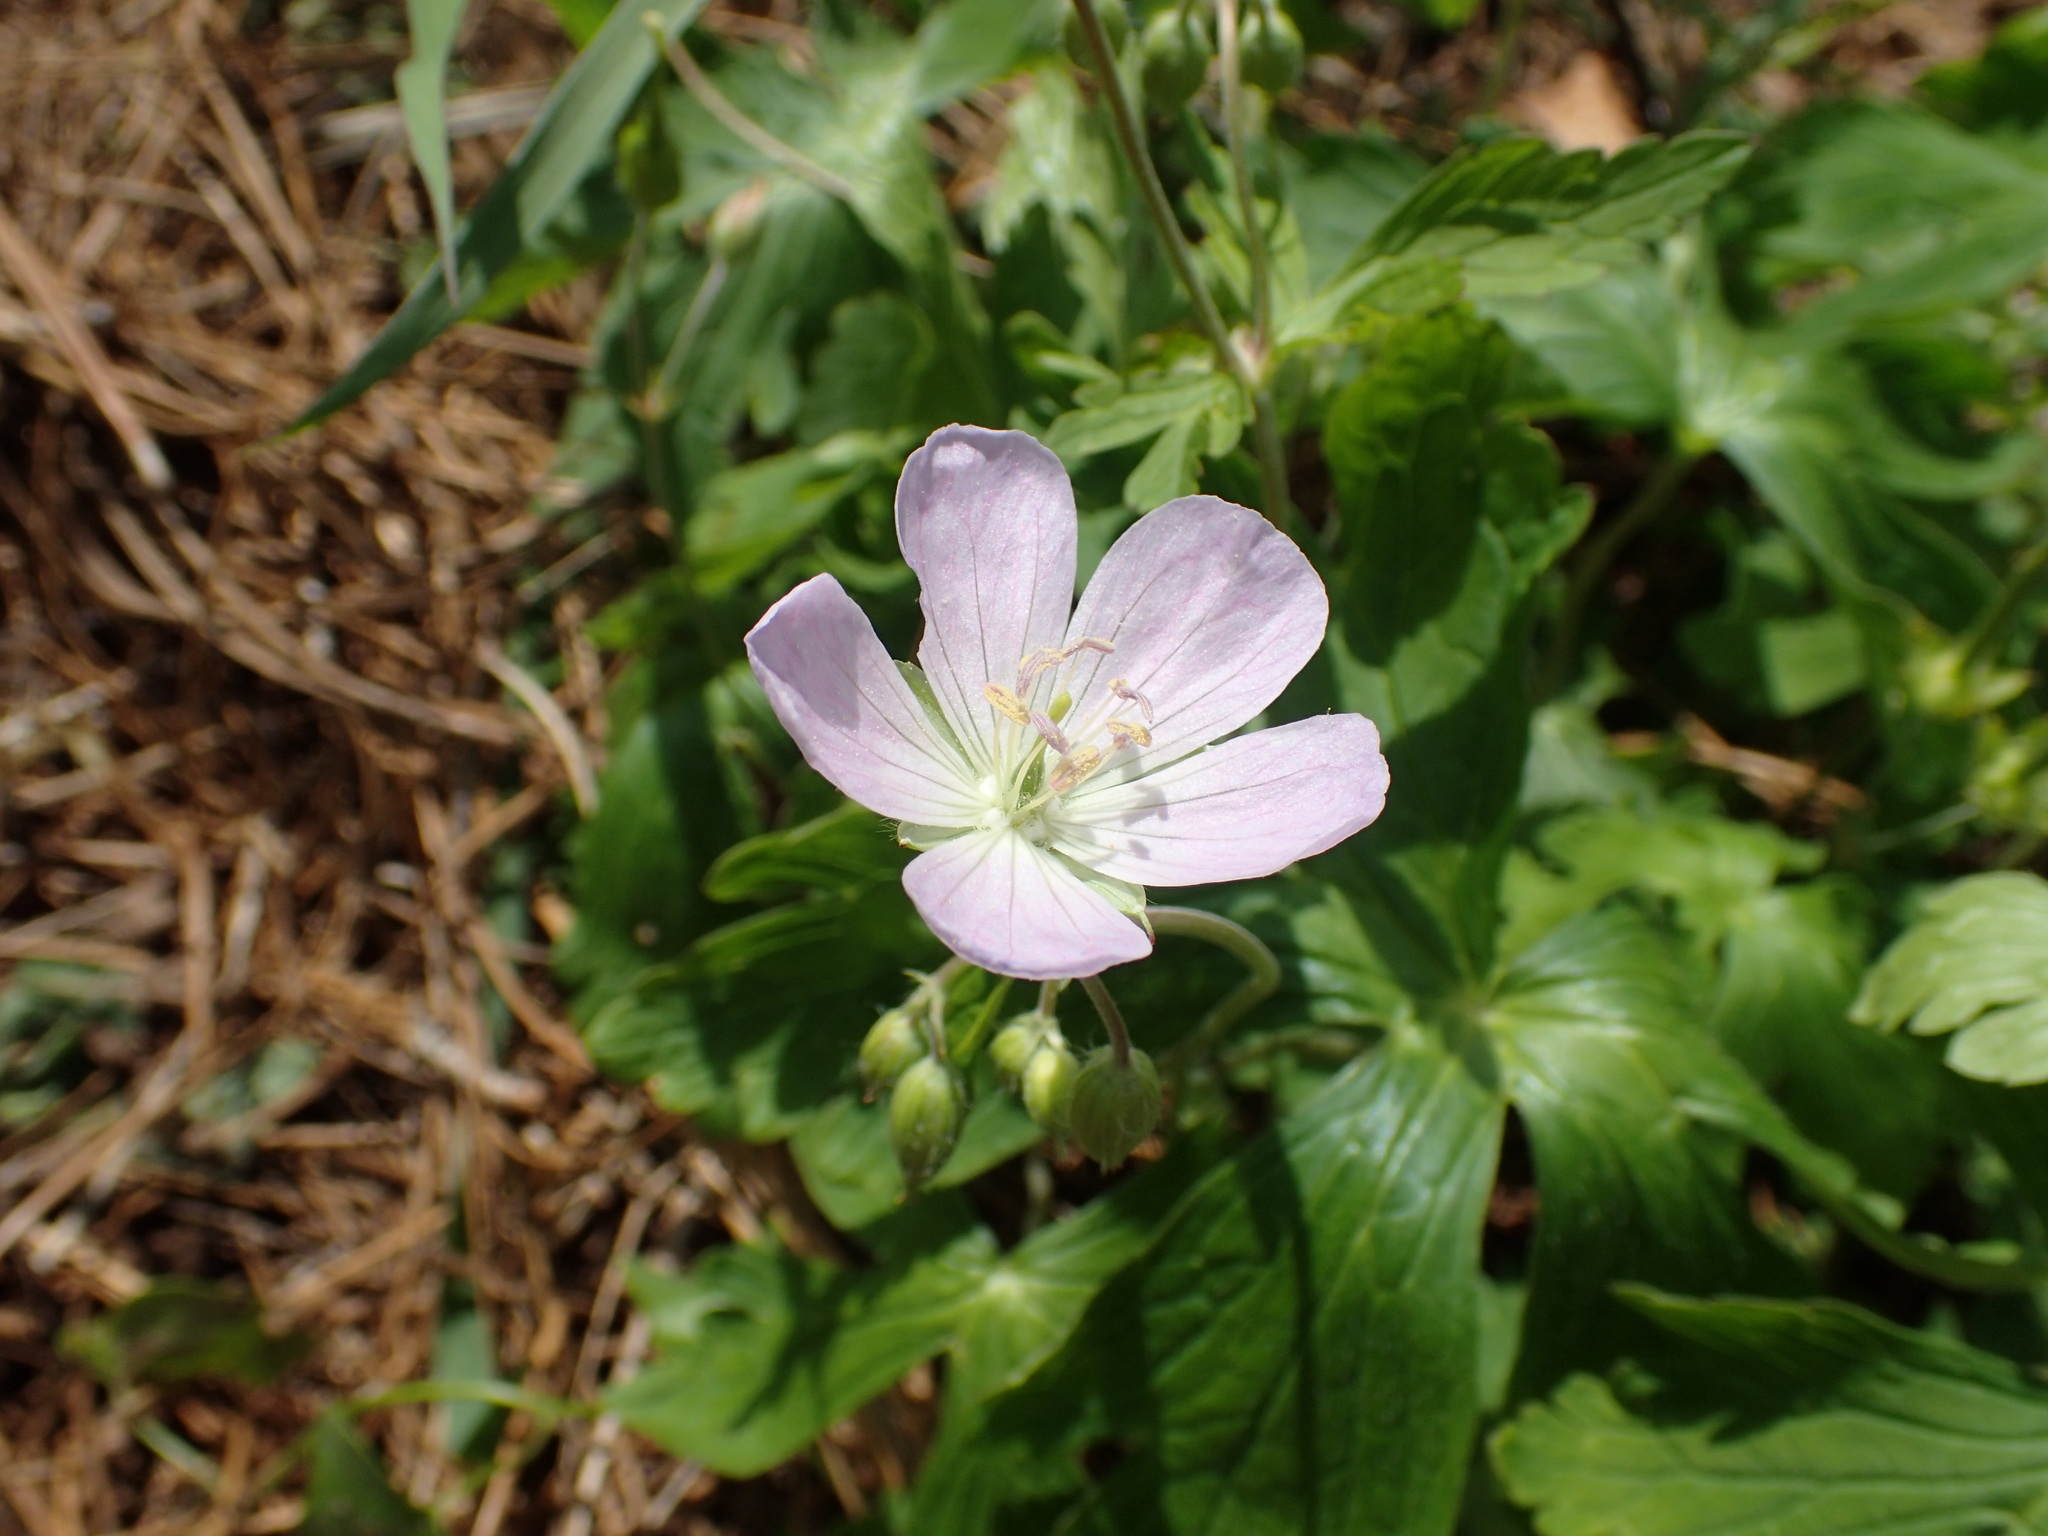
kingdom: Plantae
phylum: Tracheophyta
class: Magnoliopsida
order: Geraniales
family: Geraniaceae
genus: Geranium
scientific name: Geranium maculatum
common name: Spotted geranium
